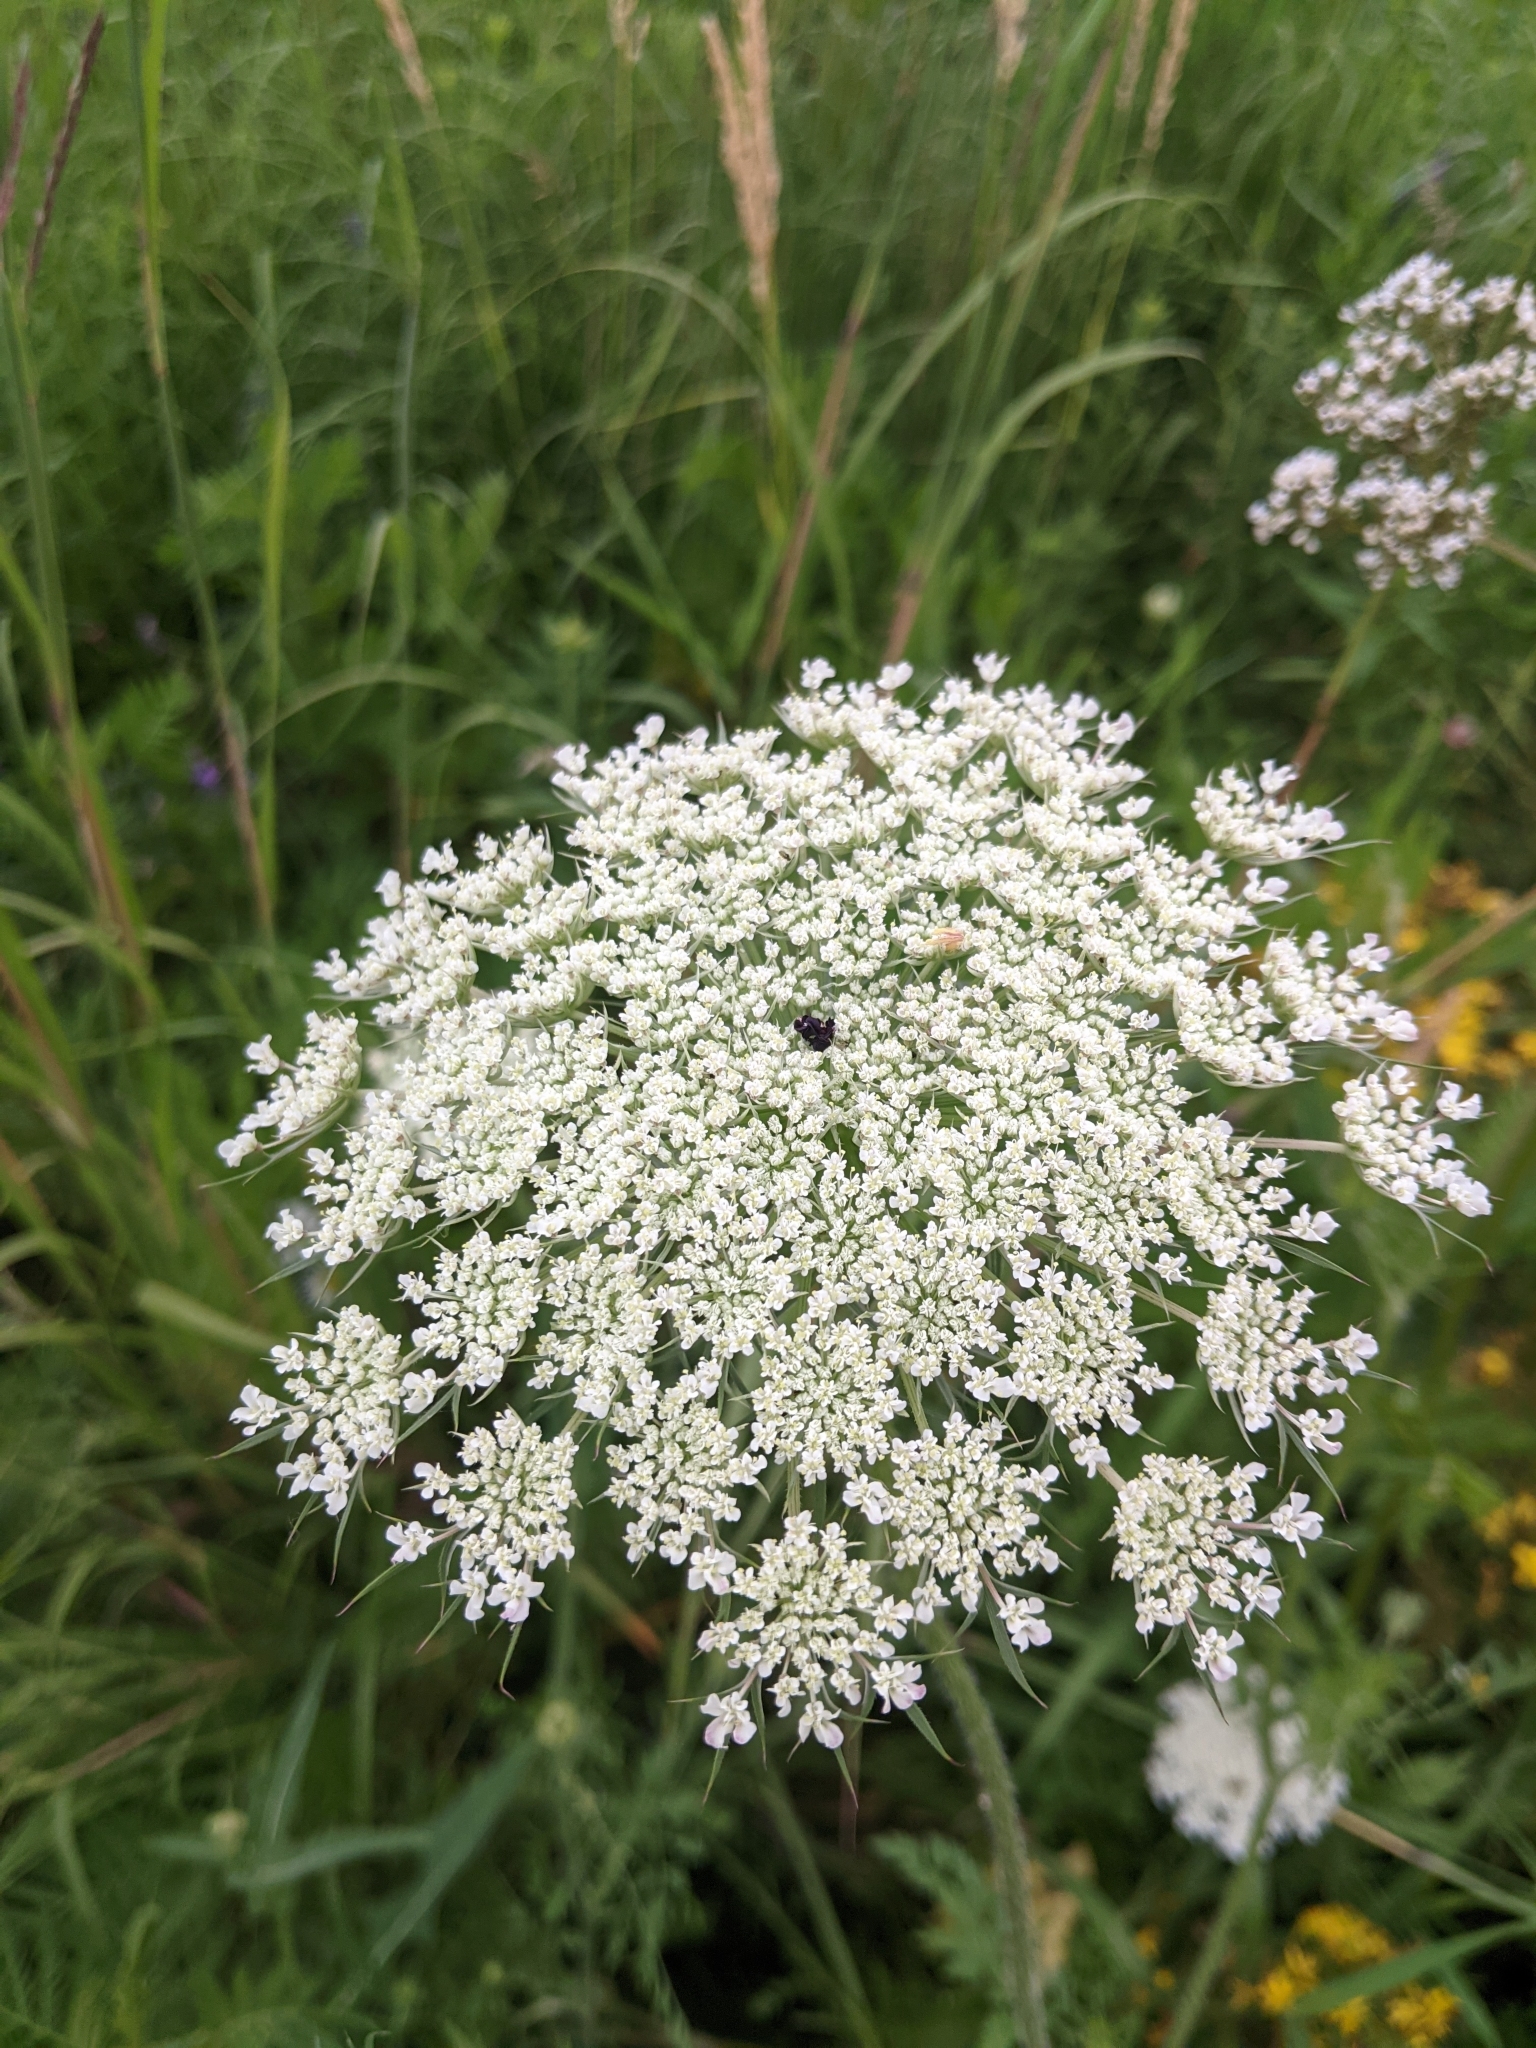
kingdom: Plantae
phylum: Tracheophyta
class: Magnoliopsida
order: Apiales
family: Apiaceae
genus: Daucus
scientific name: Daucus carota
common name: Wild carrot
